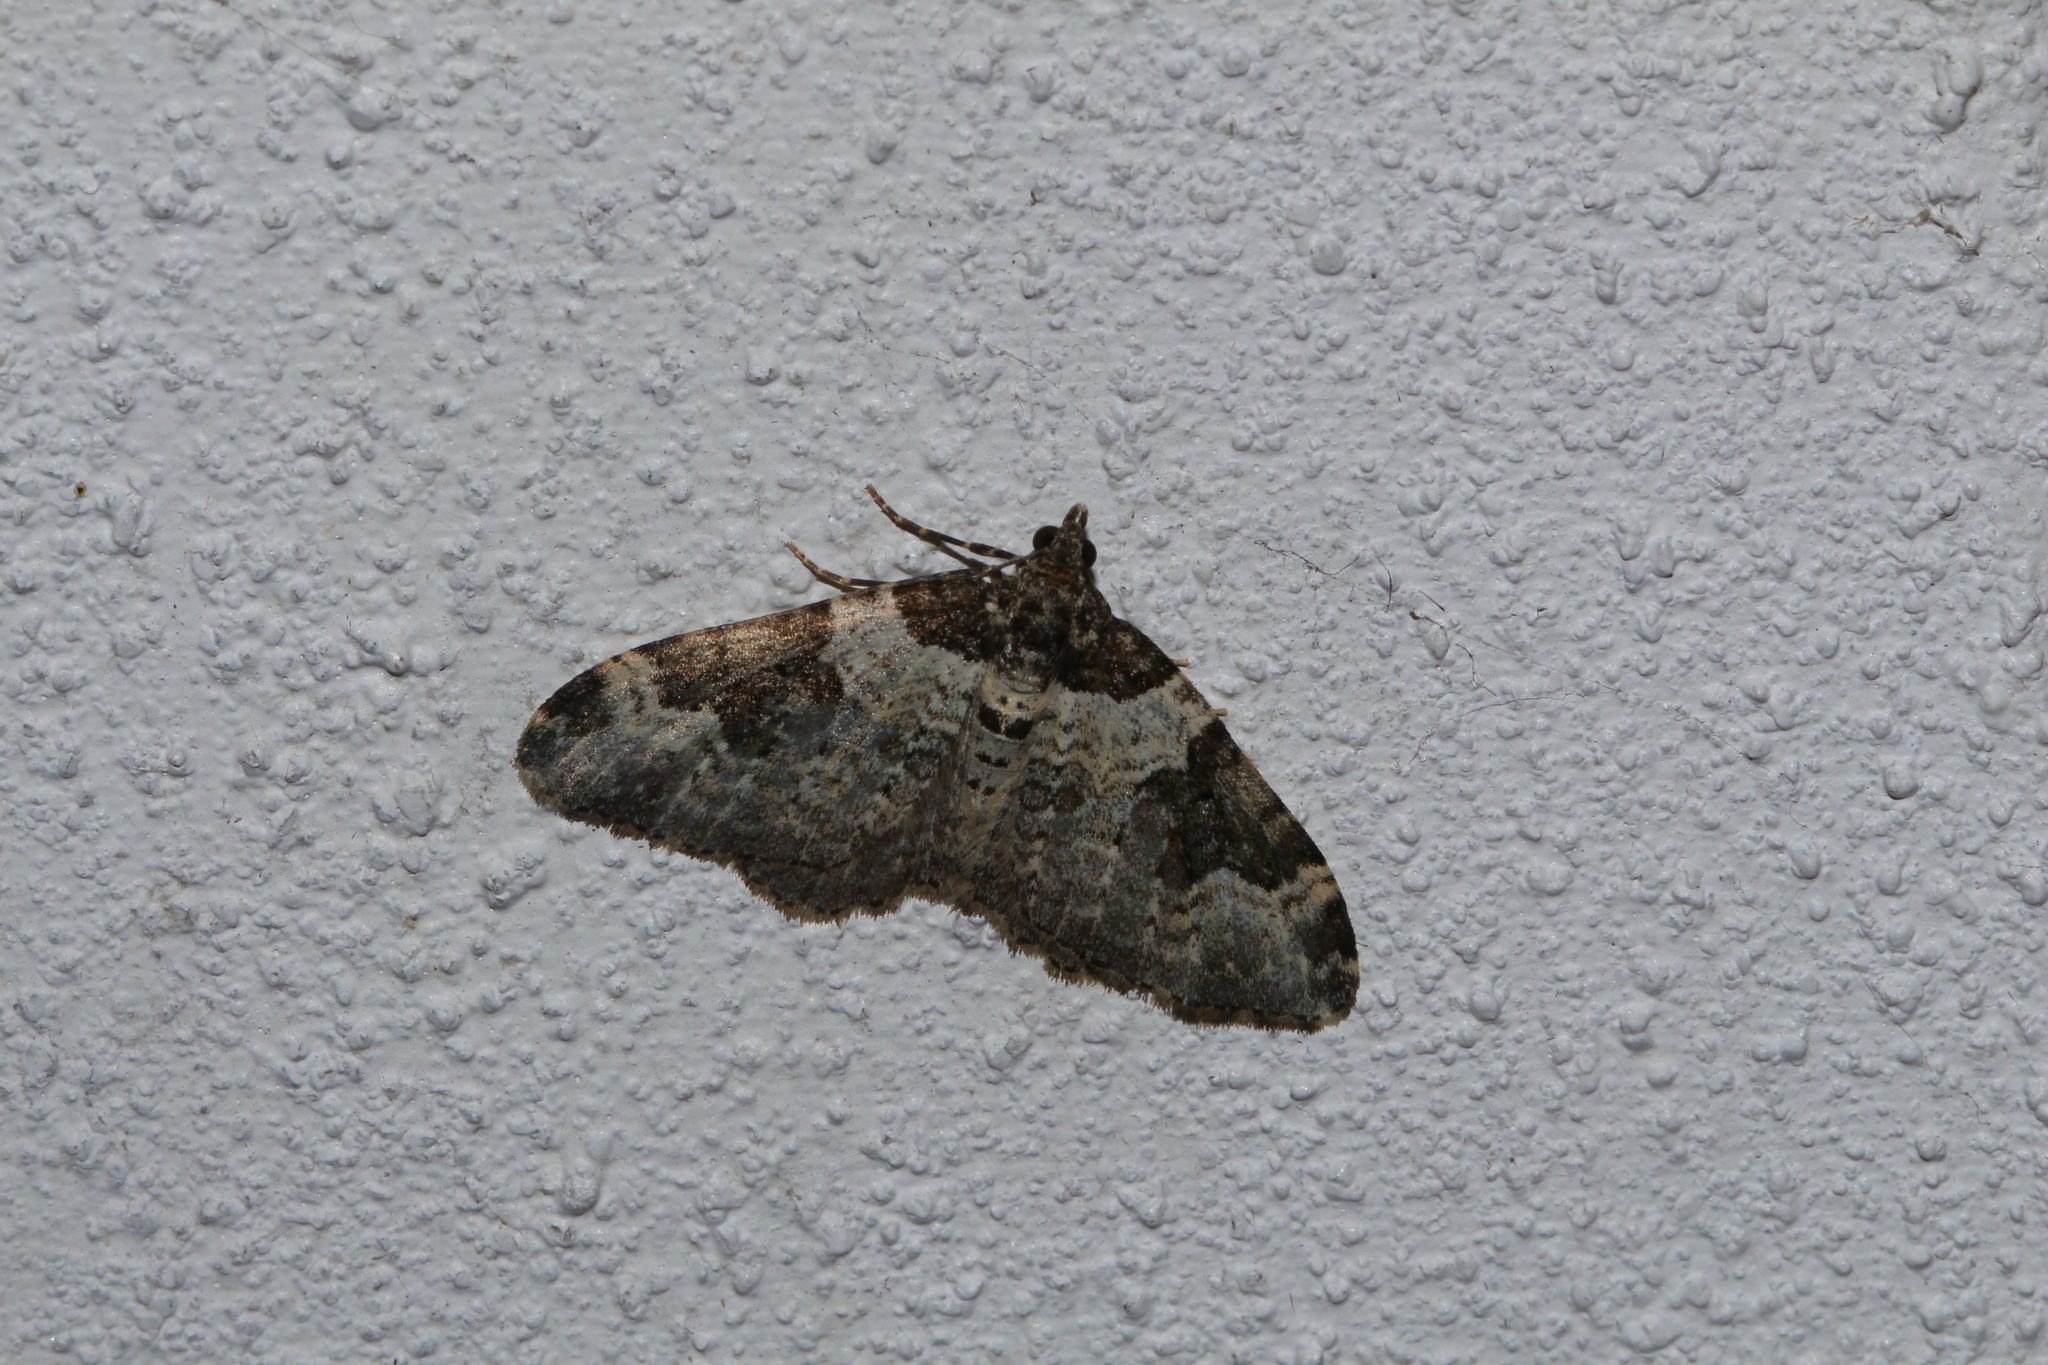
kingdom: Animalia
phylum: Arthropoda
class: Insecta
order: Lepidoptera
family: Geometridae
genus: Xanthorhoe
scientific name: Xanthorhoe fluctuata
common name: Garden carpet
